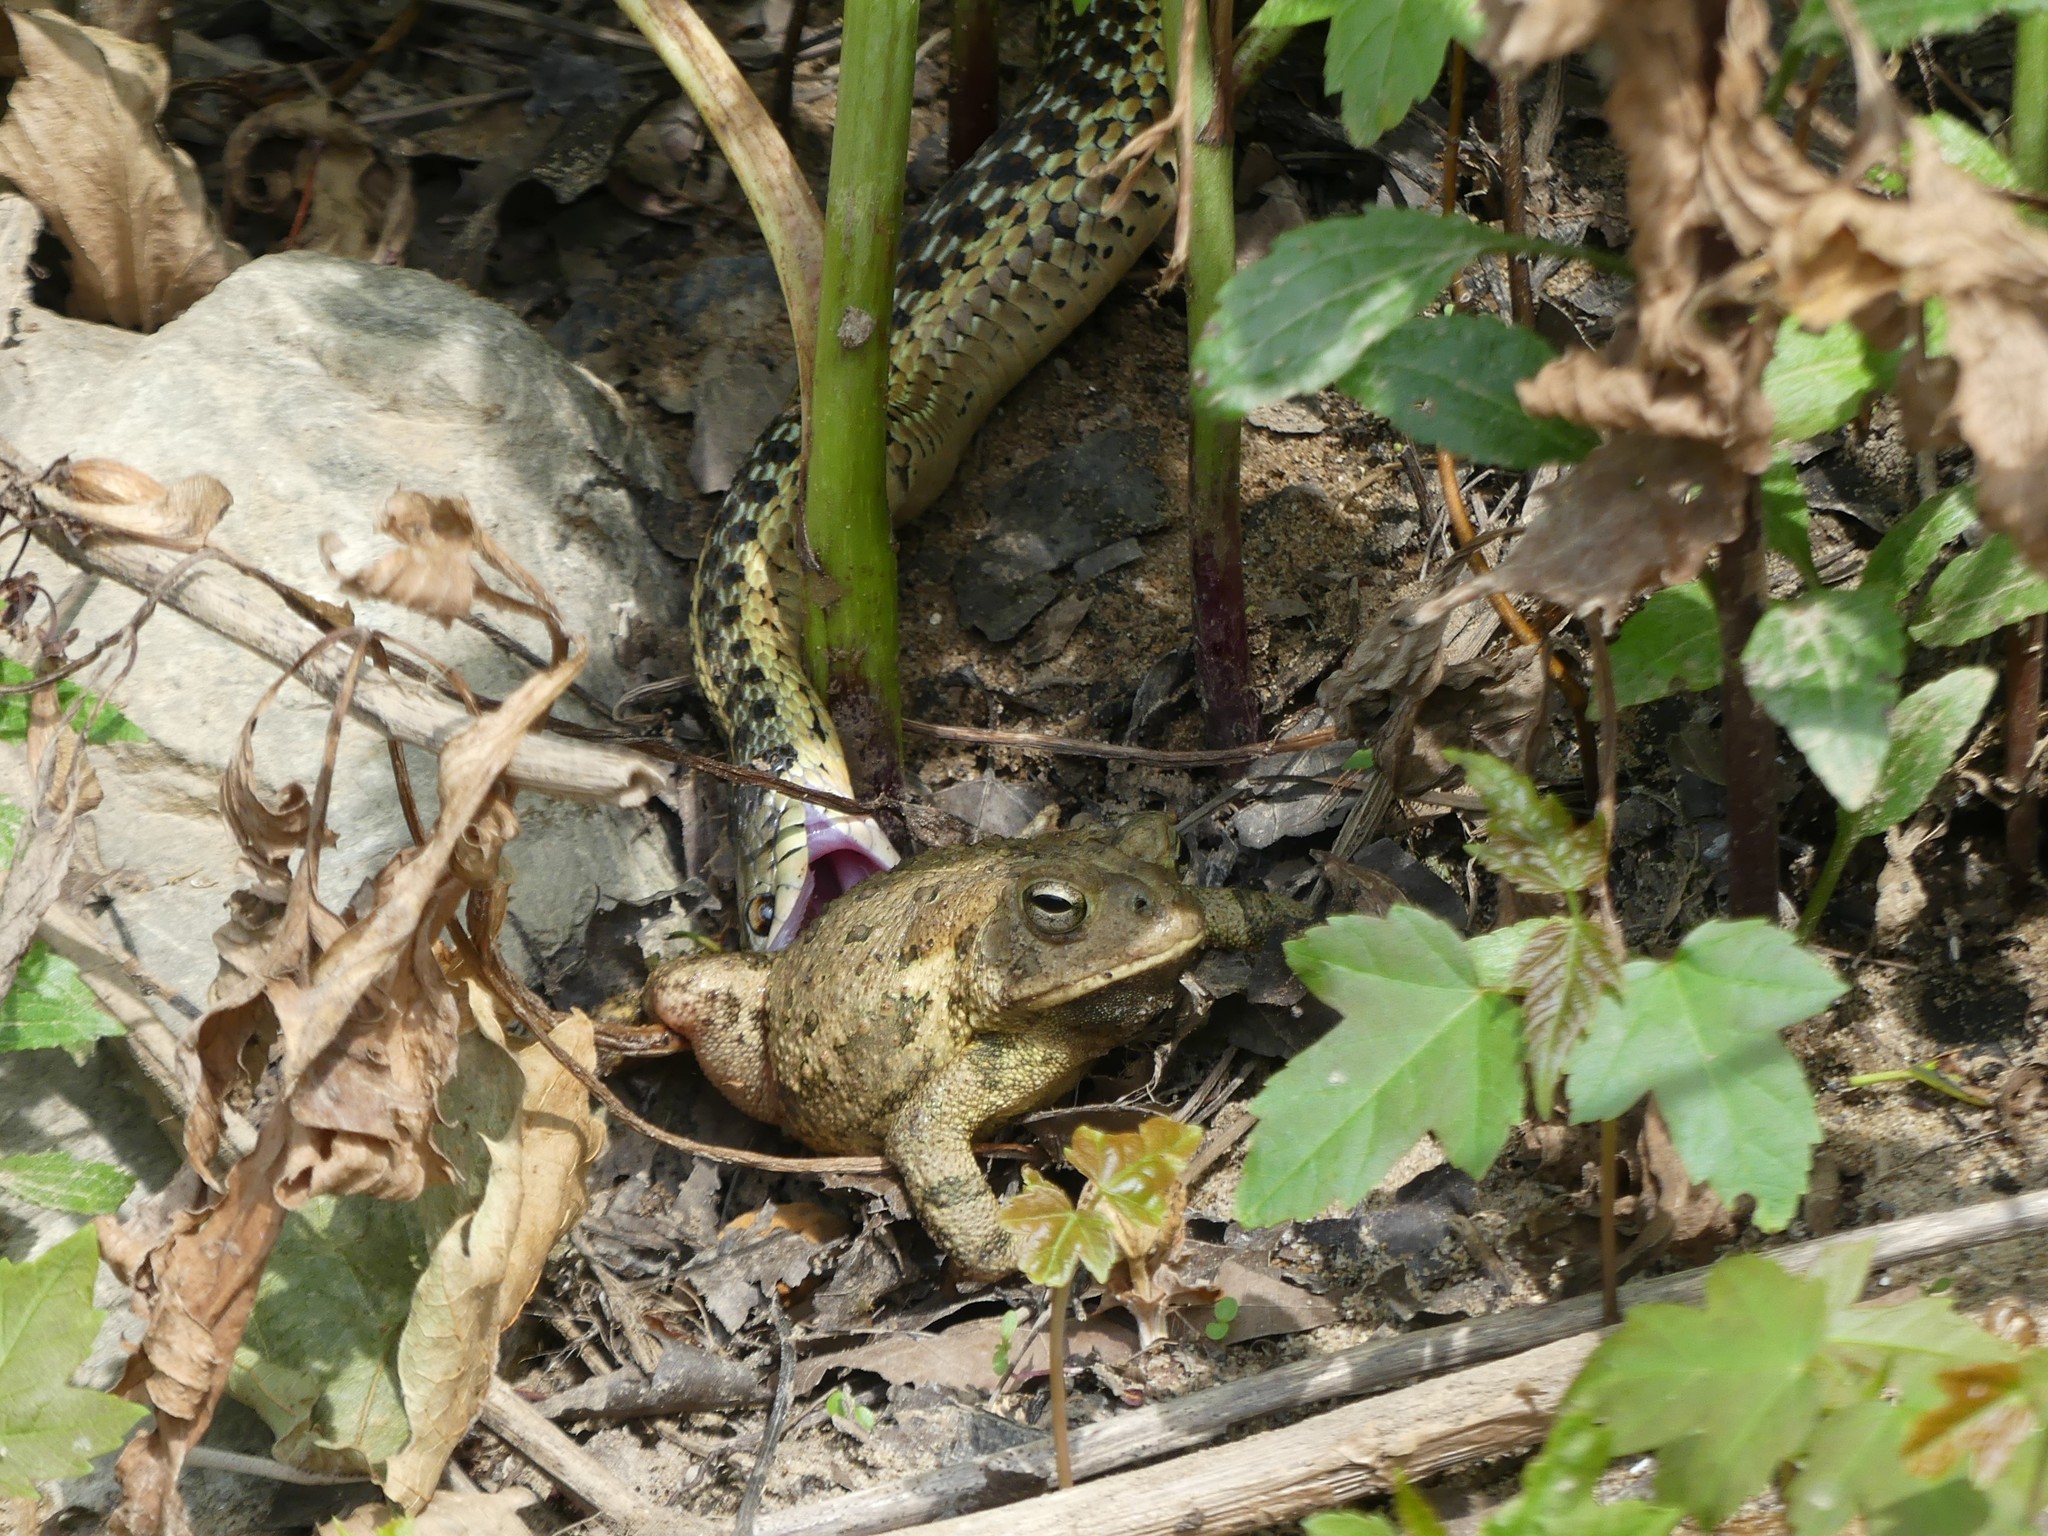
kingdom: Animalia
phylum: Chordata
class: Squamata
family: Colubridae
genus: Thamnophis
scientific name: Thamnophis sirtalis
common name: Common garter snake
